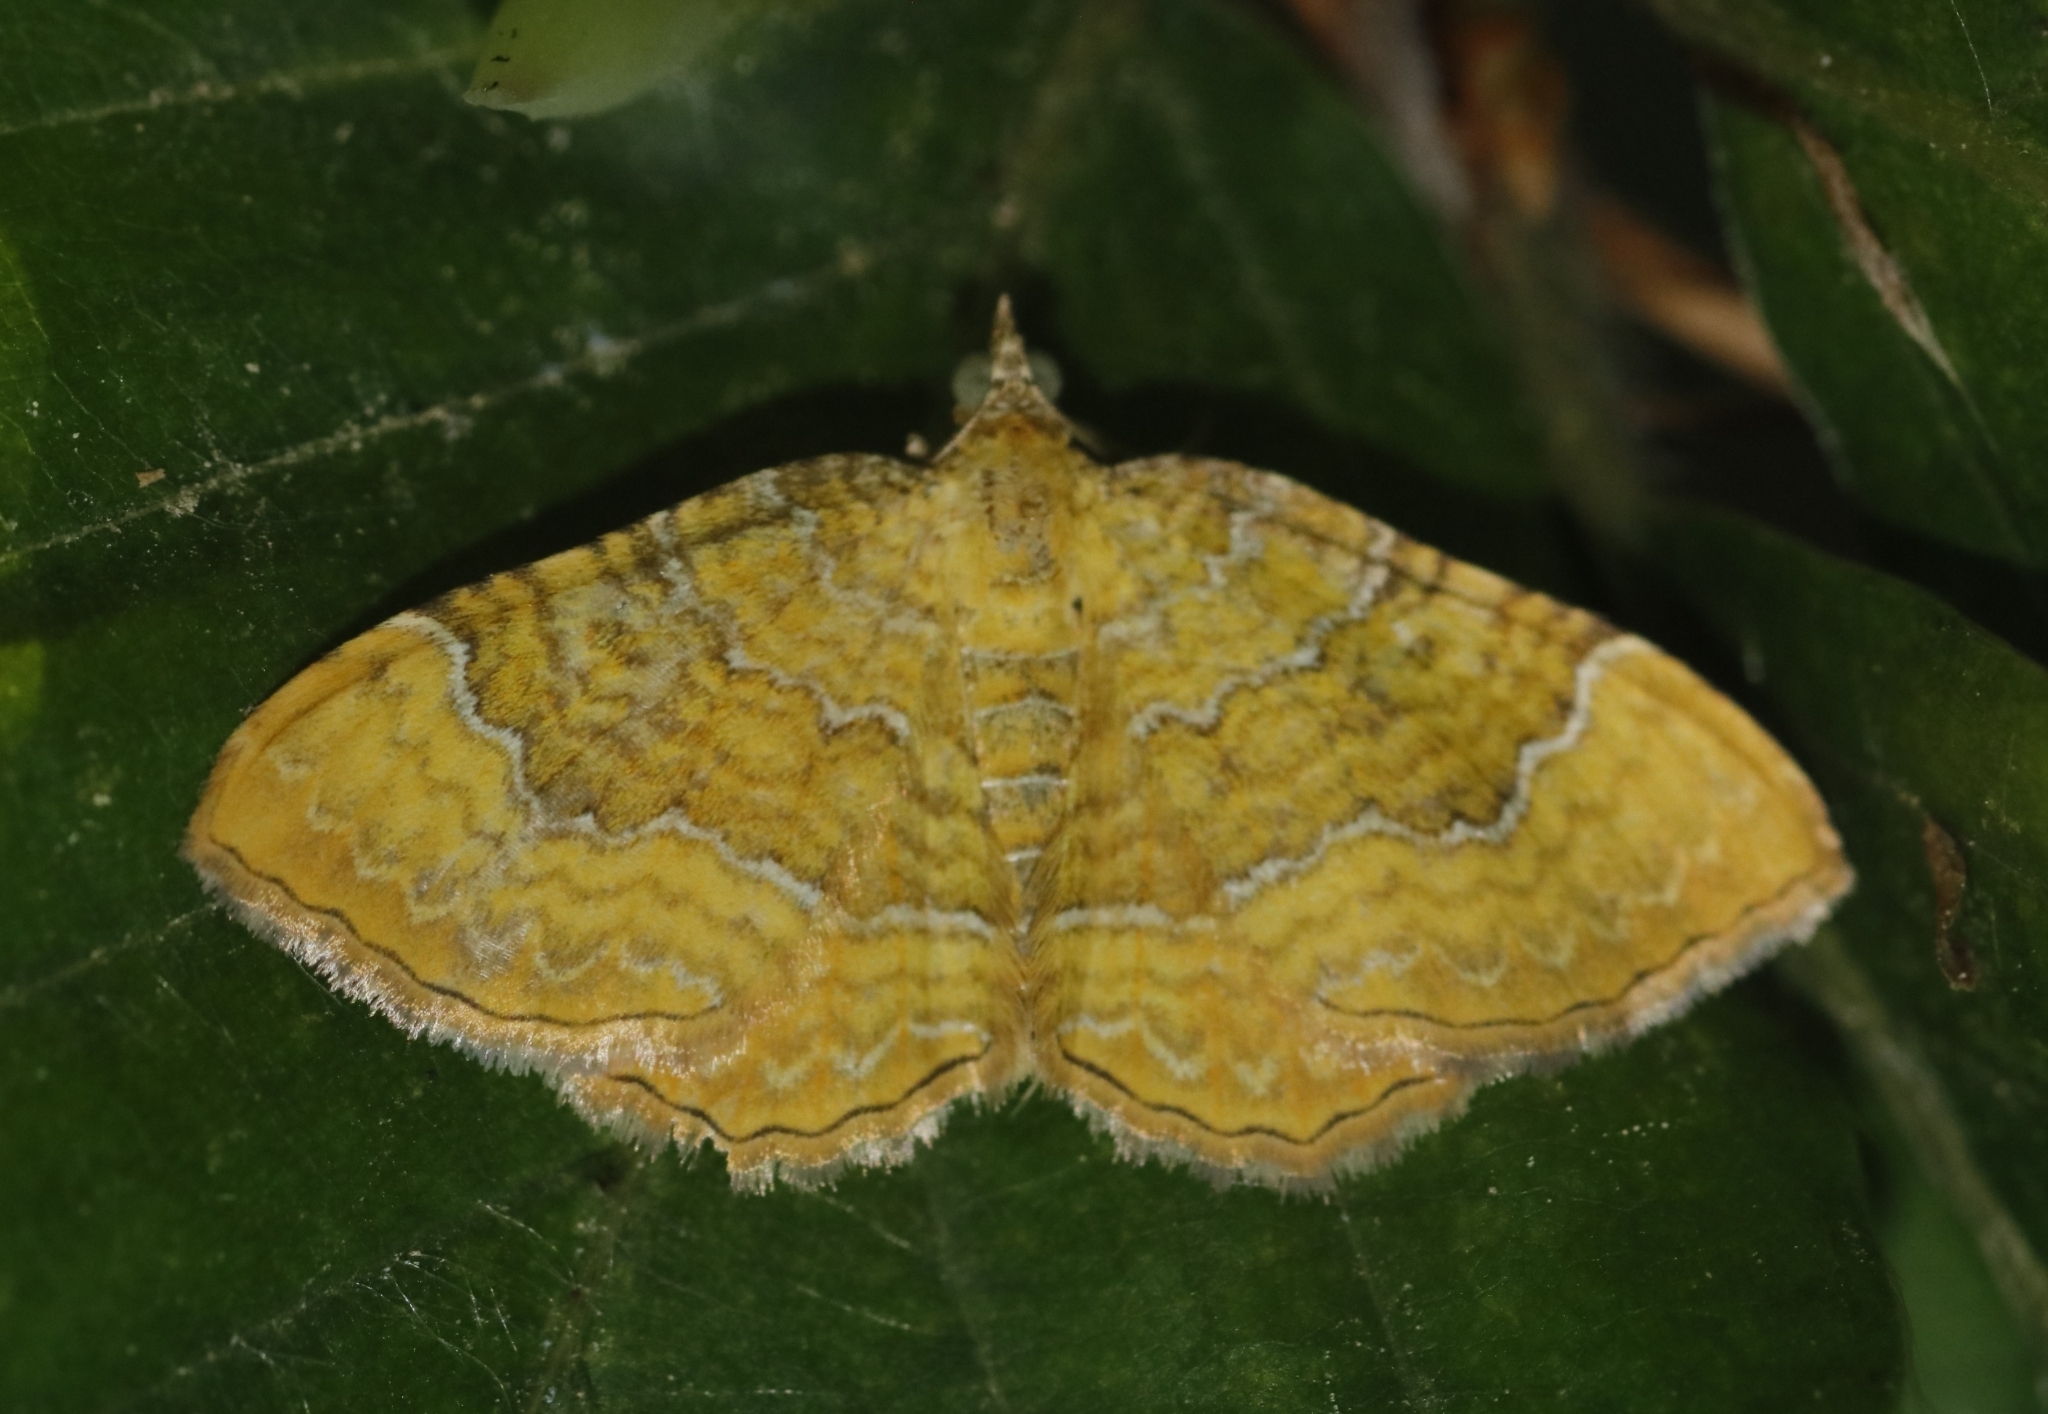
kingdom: Animalia
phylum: Arthropoda
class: Insecta
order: Lepidoptera
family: Geometridae
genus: Camptogramma
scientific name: Camptogramma bilineata
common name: Yellow shell
